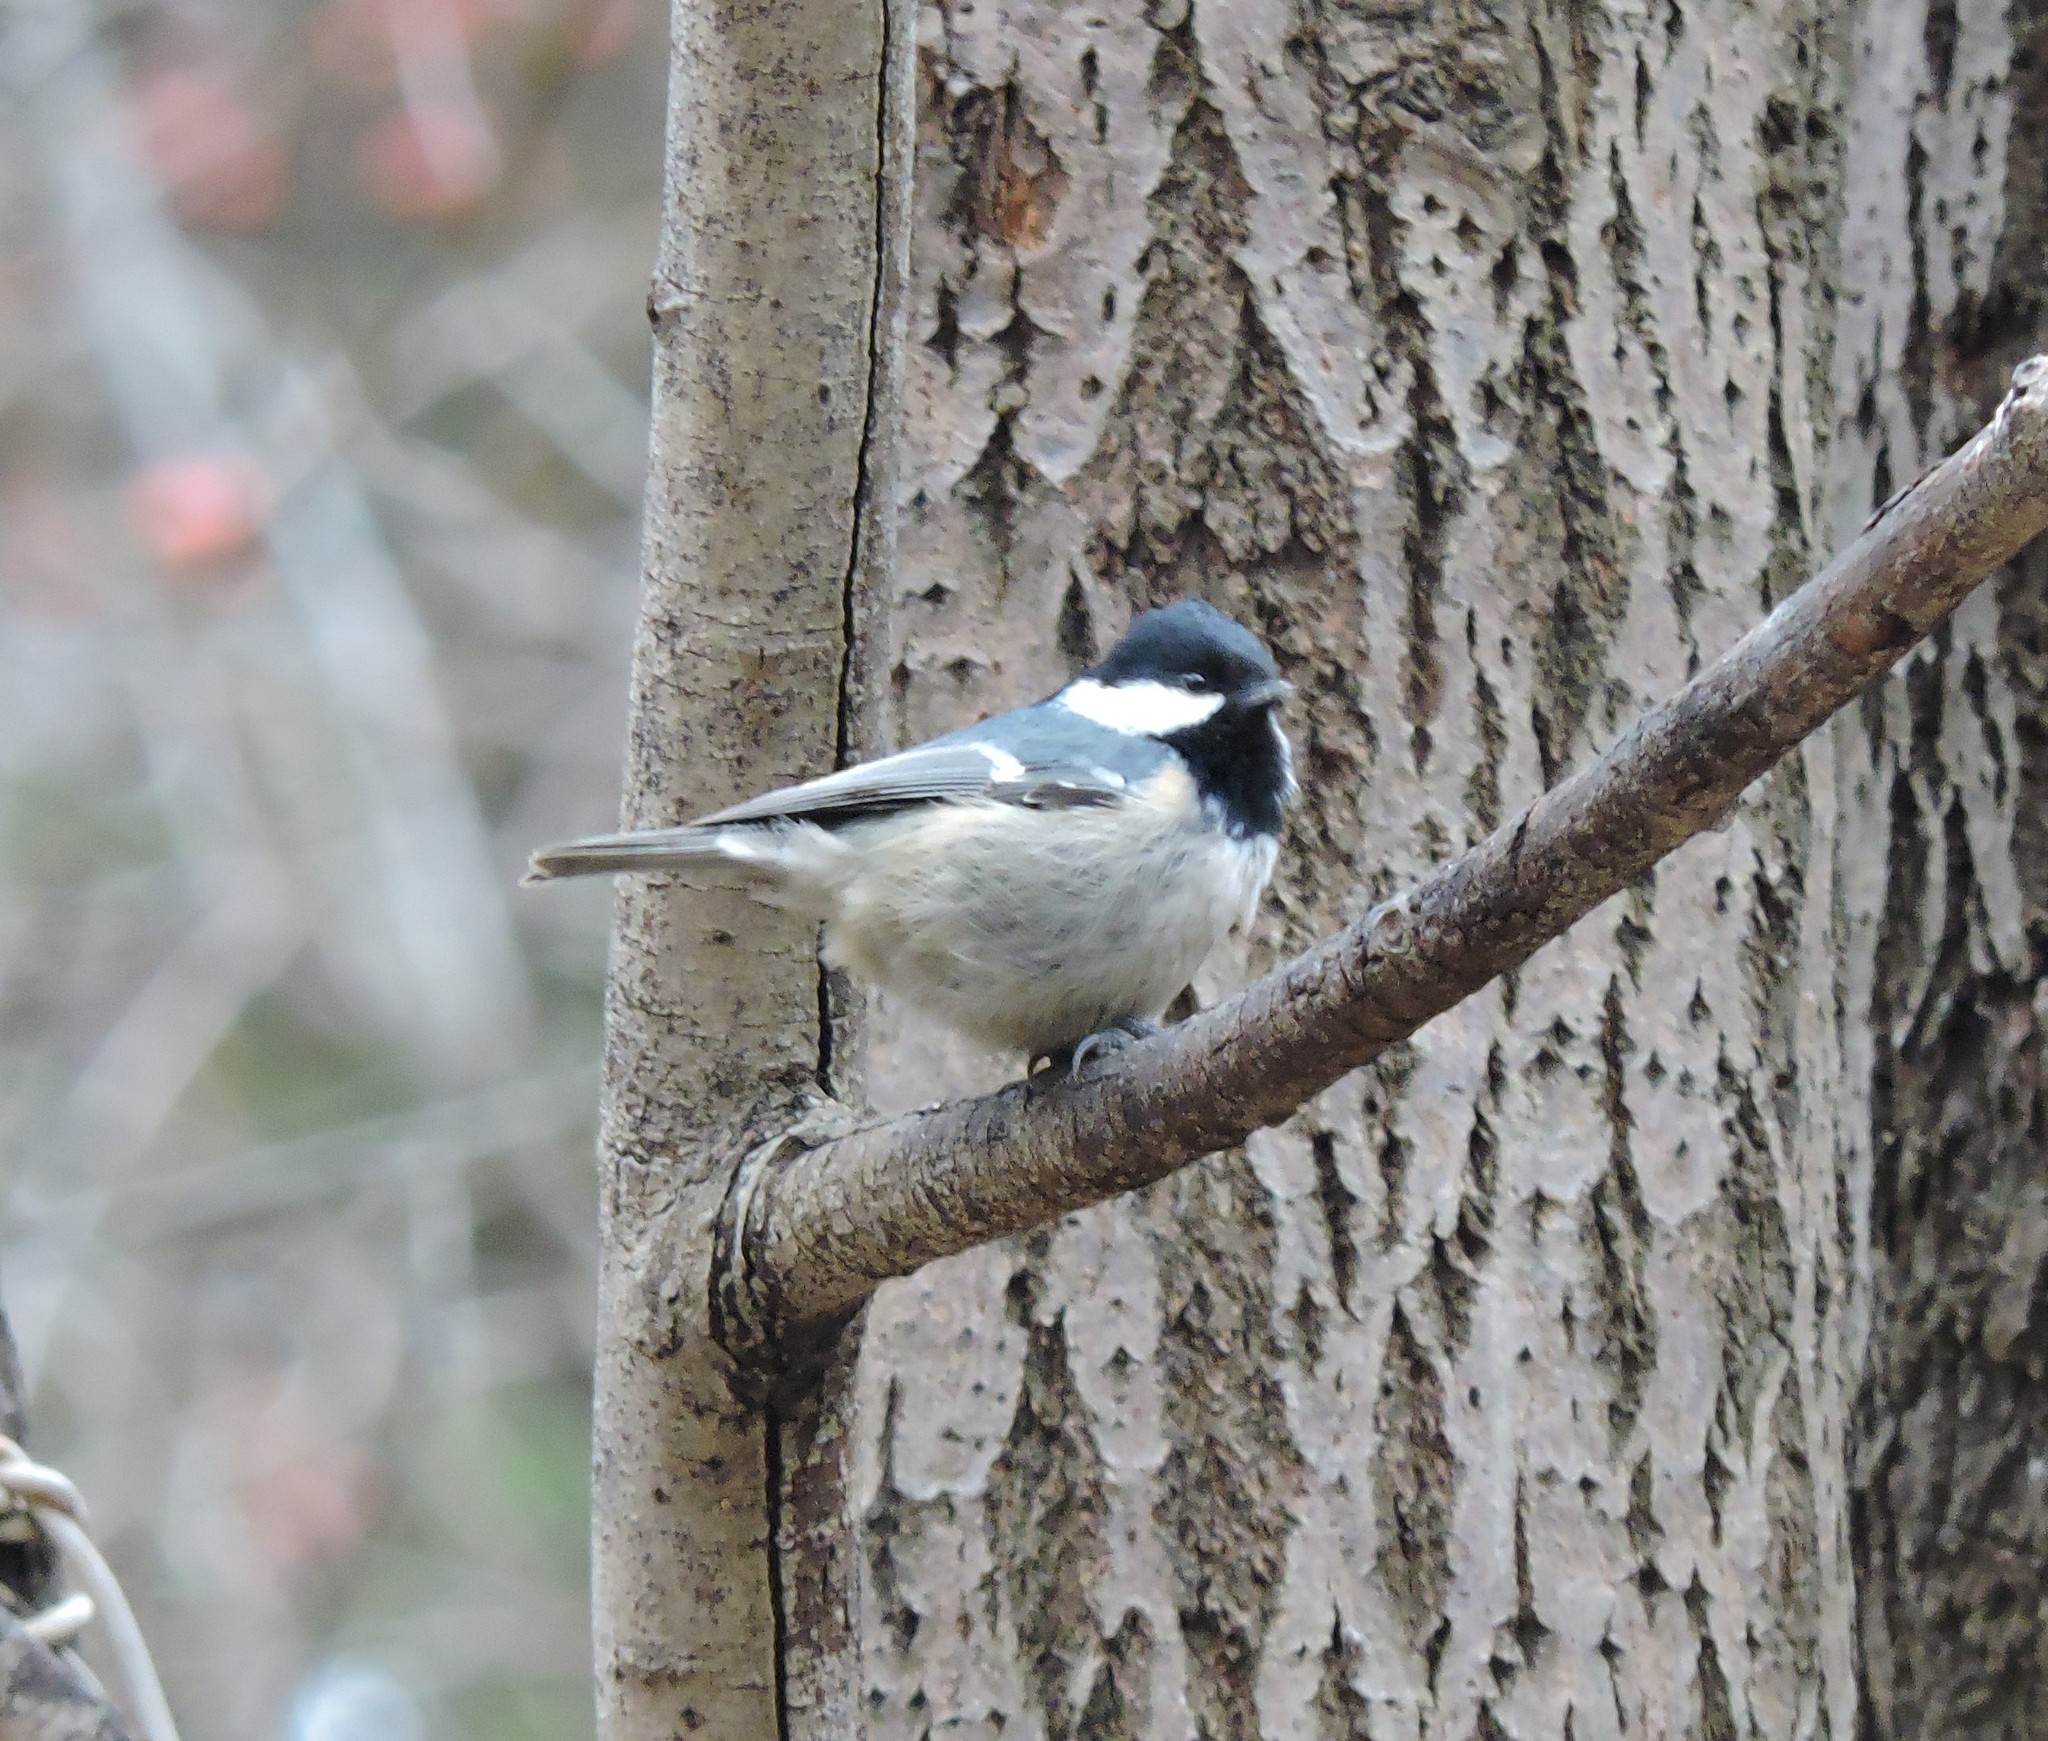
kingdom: Animalia
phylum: Chordata
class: Aves
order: Passeriformes
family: Paridae
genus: Periparus
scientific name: Periparus ater
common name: Coal tit
